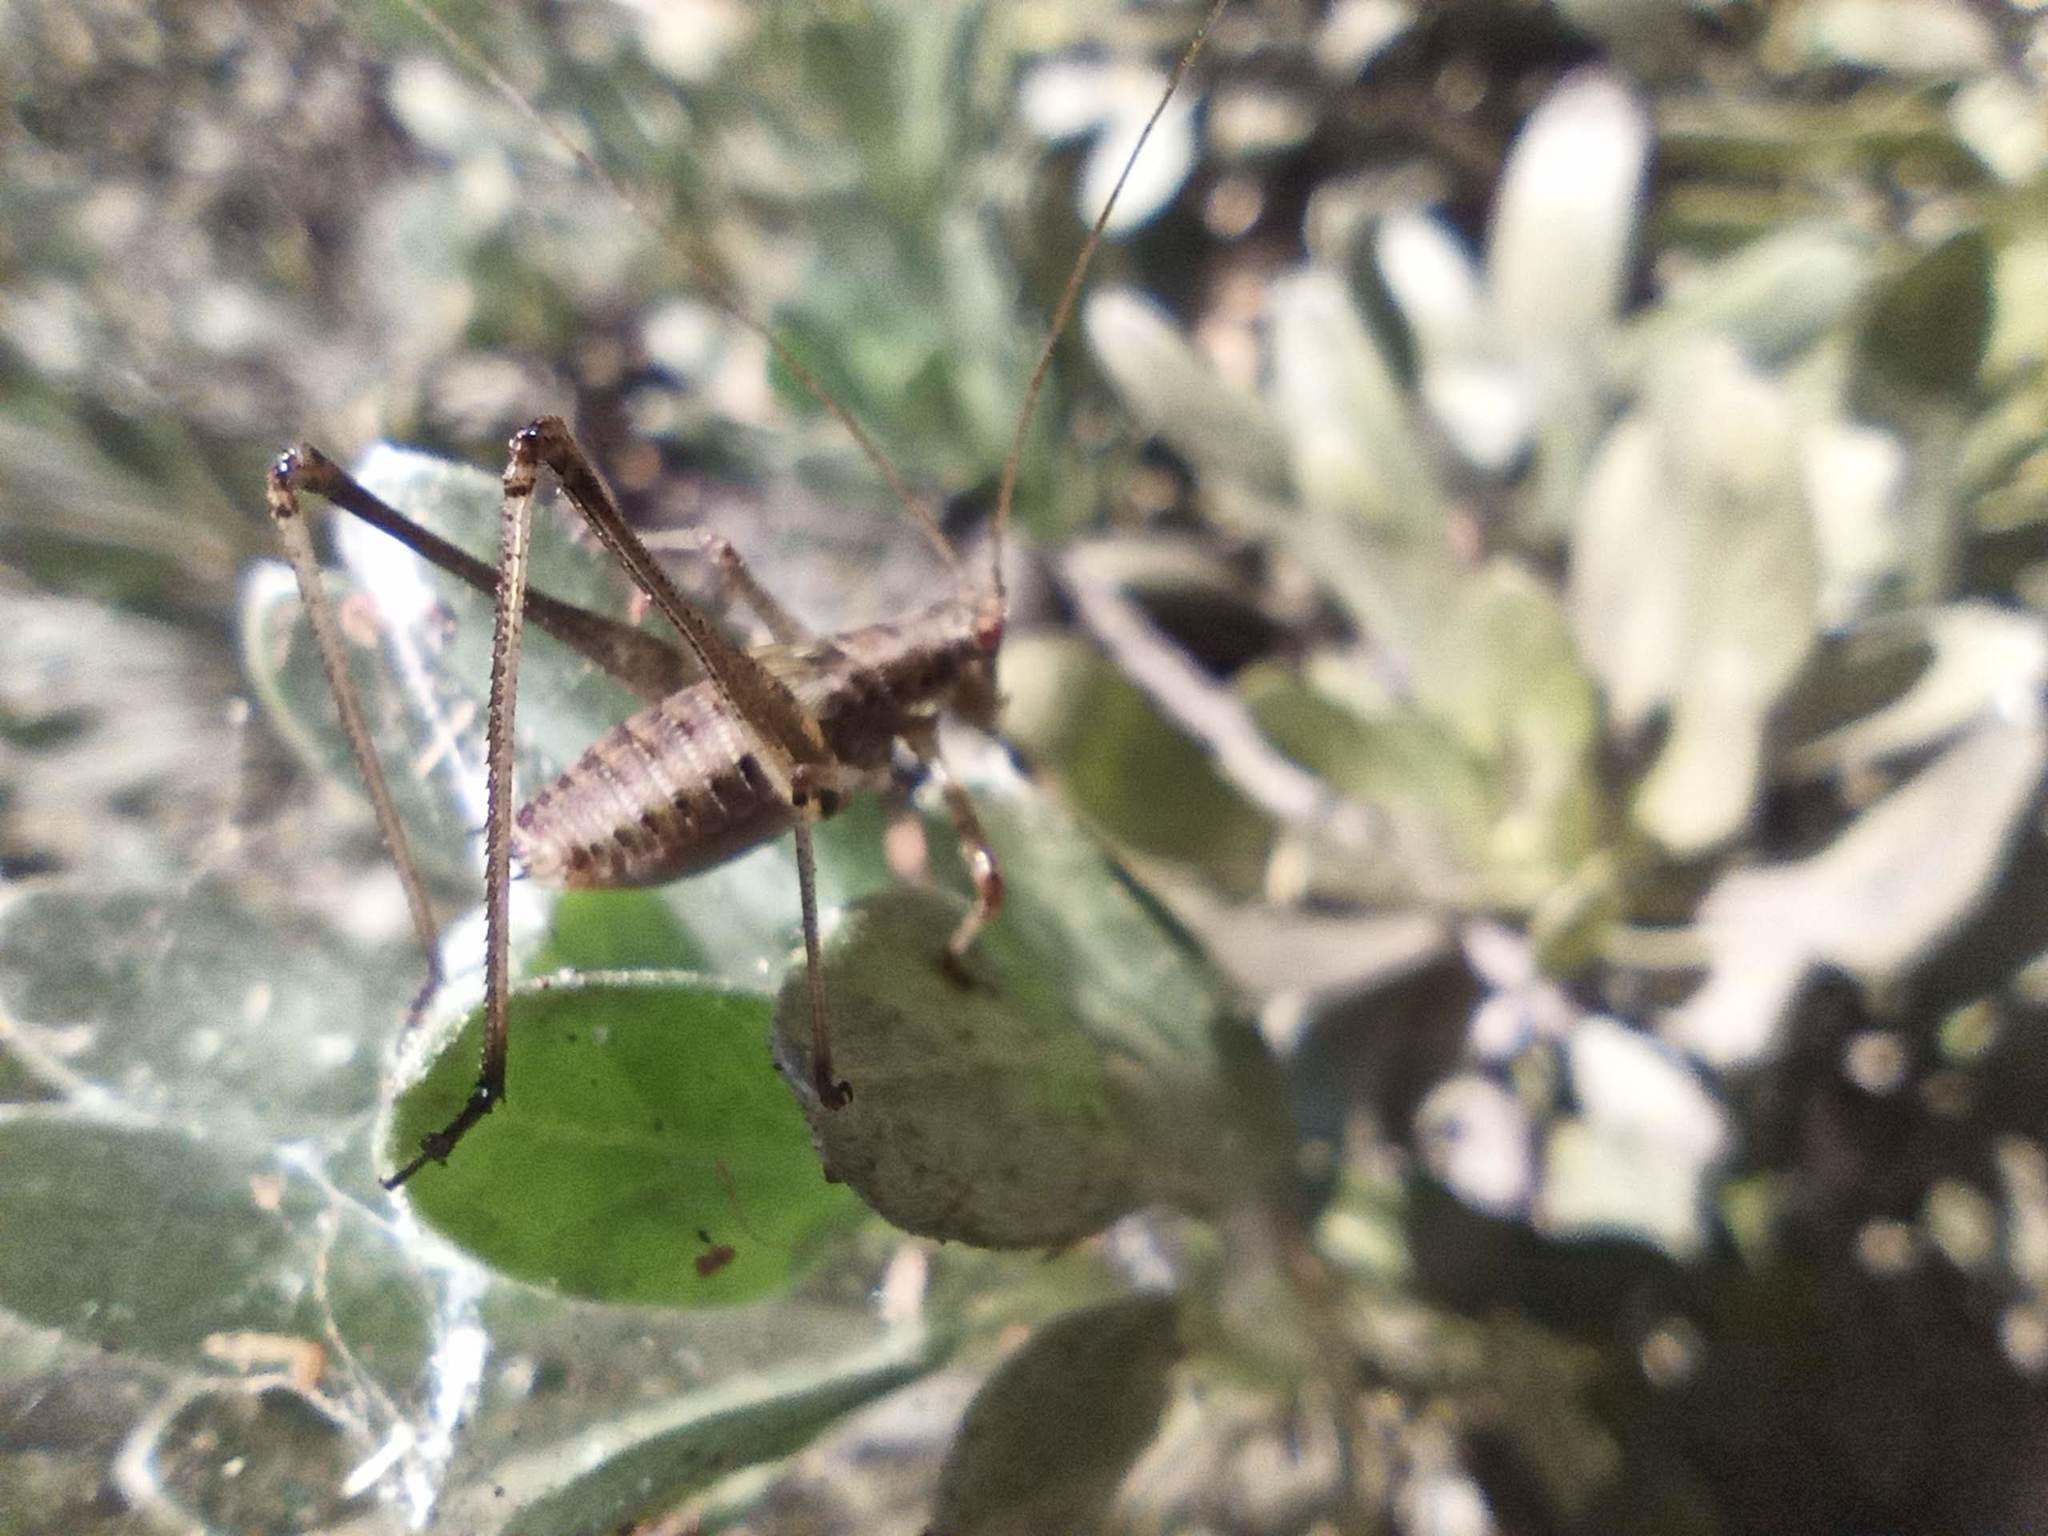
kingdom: Animalia
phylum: Arthropoda
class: Insecta
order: Orthoptera
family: Tettigoniidae
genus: Phaneroptera
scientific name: Phaneroptera sparsa
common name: Sickle-bearing leaf katydid
